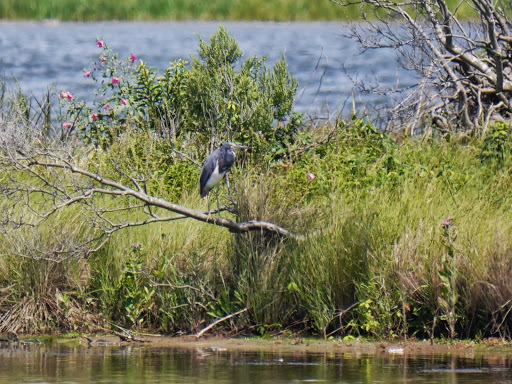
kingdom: Animalia
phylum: Chordata
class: Aves
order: Pelecaniformes
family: Ardeidae
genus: Egretta
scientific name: Egretta tricolor
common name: Tricolored heron
